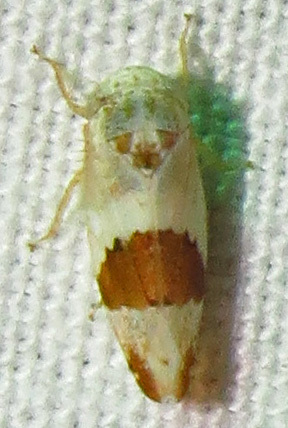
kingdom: Animalia
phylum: Arthropoda
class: Insecta
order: Hemiptera
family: Cicadellidae
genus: Norvellina
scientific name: Norvellina seminuda
